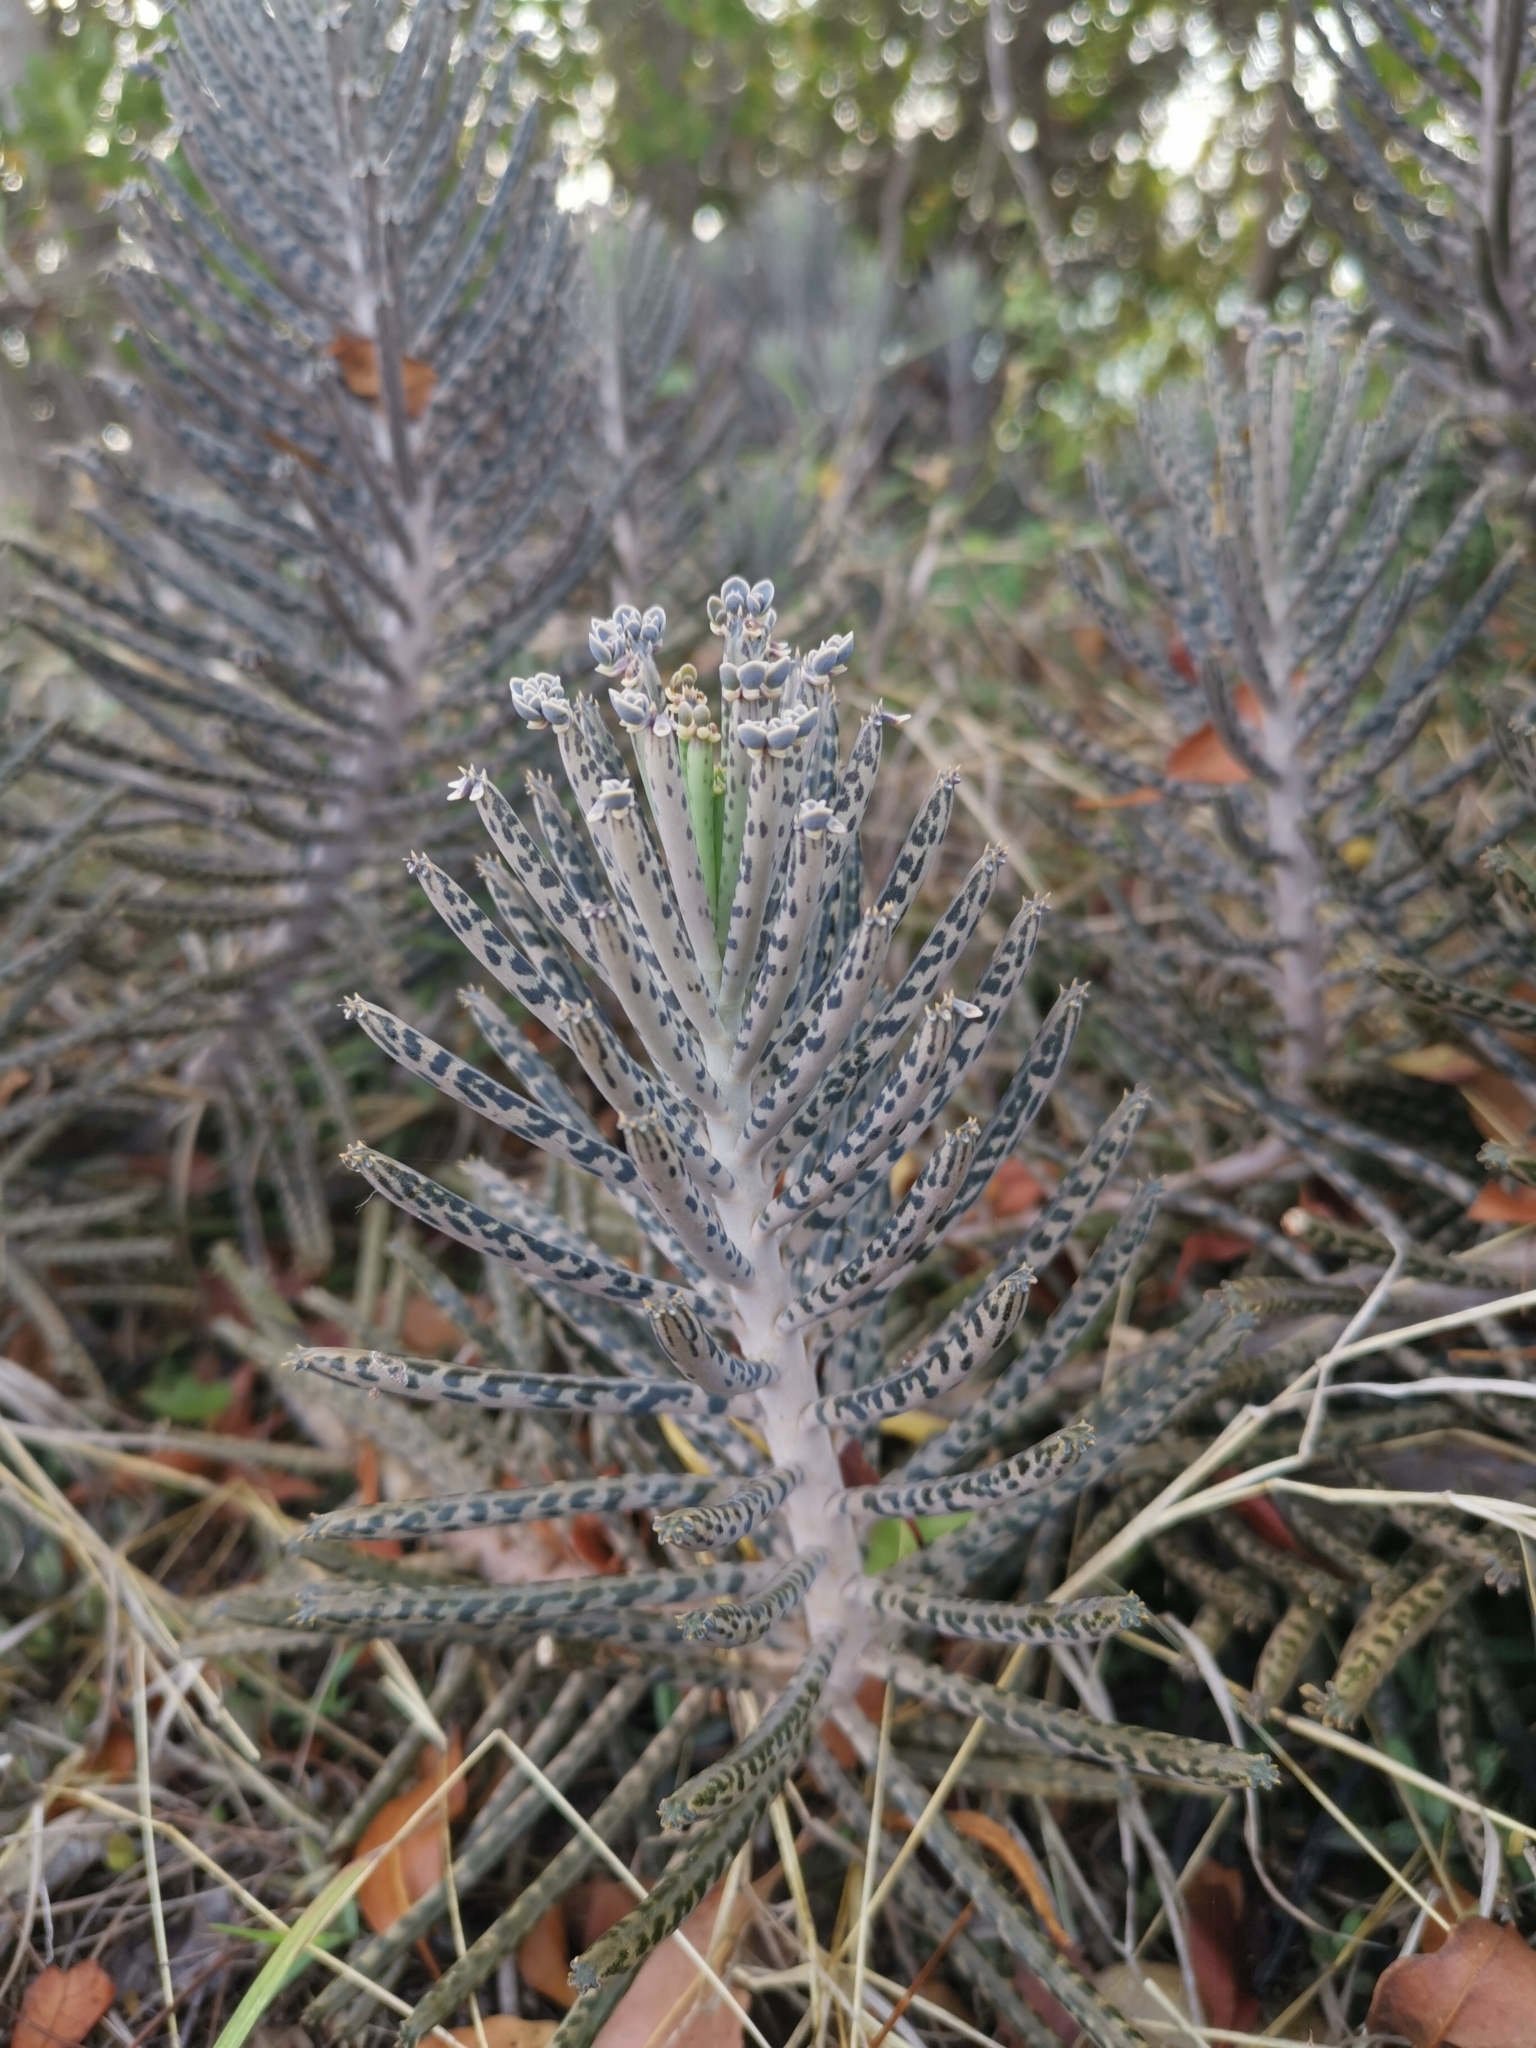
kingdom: Plantae
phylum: Tracheophyta
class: Magnoliopsida
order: Saxifragales
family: Crassulaceae
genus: Kalanchoe
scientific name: Kalanchoe delagoensis
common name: Chandelier plant
